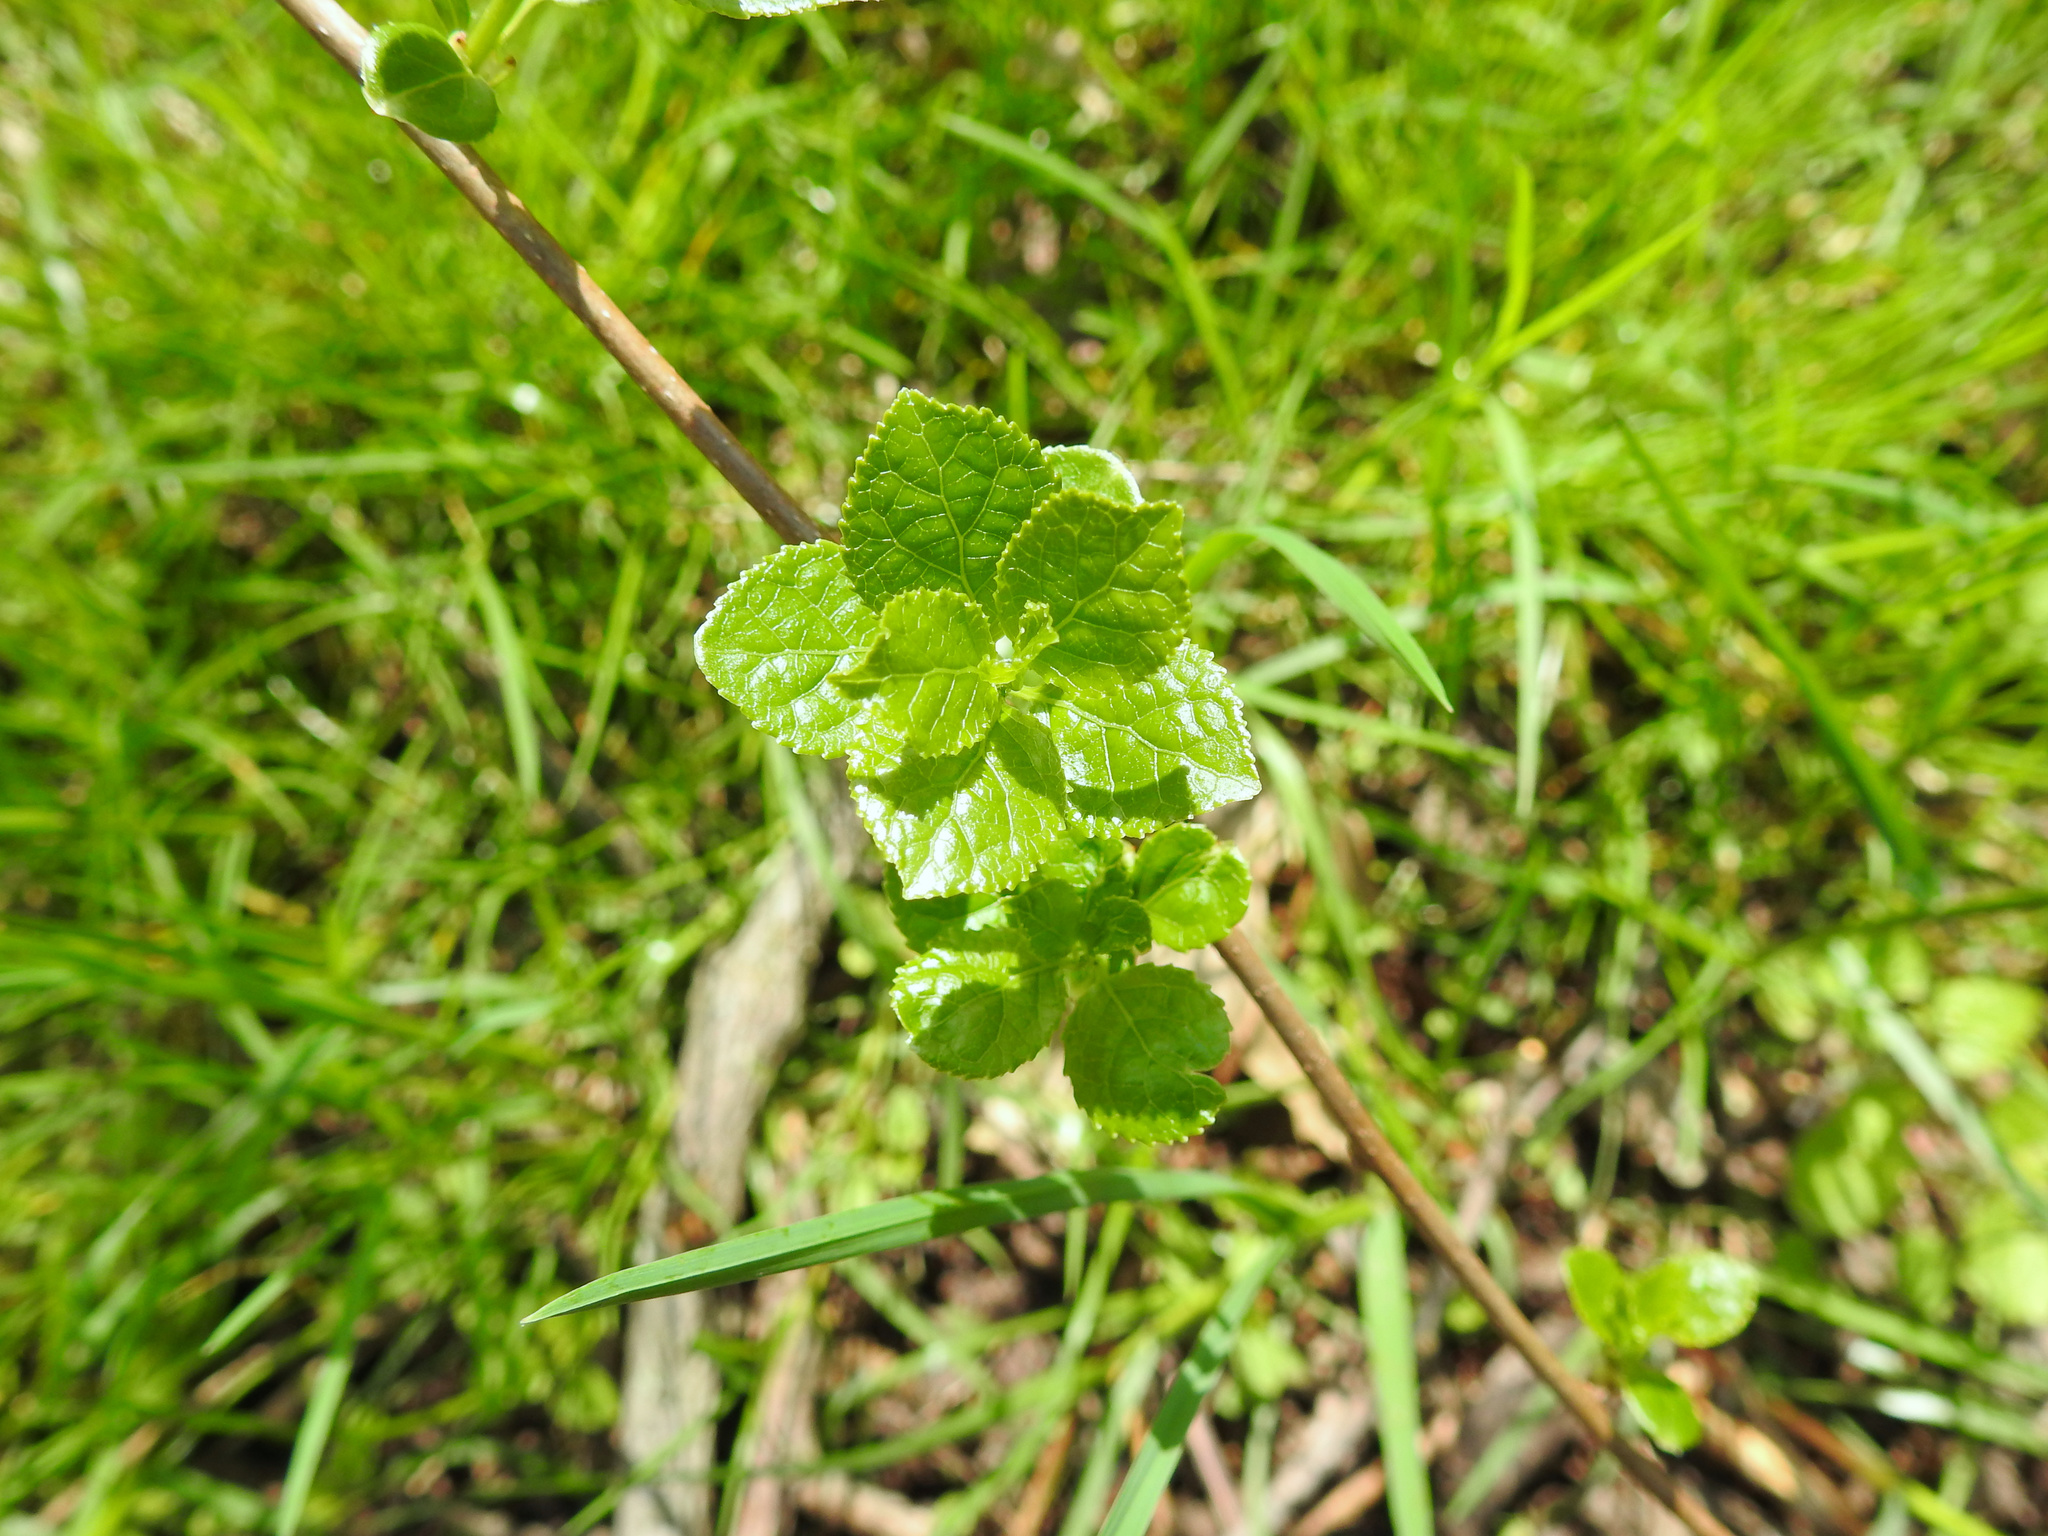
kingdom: Plantae
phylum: Tracheophyta
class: Magnoliopsida
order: Celastrales
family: Celastraceae
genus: Celastrus
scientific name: Celastrus orbiculatus
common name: Oriental bittersweet
